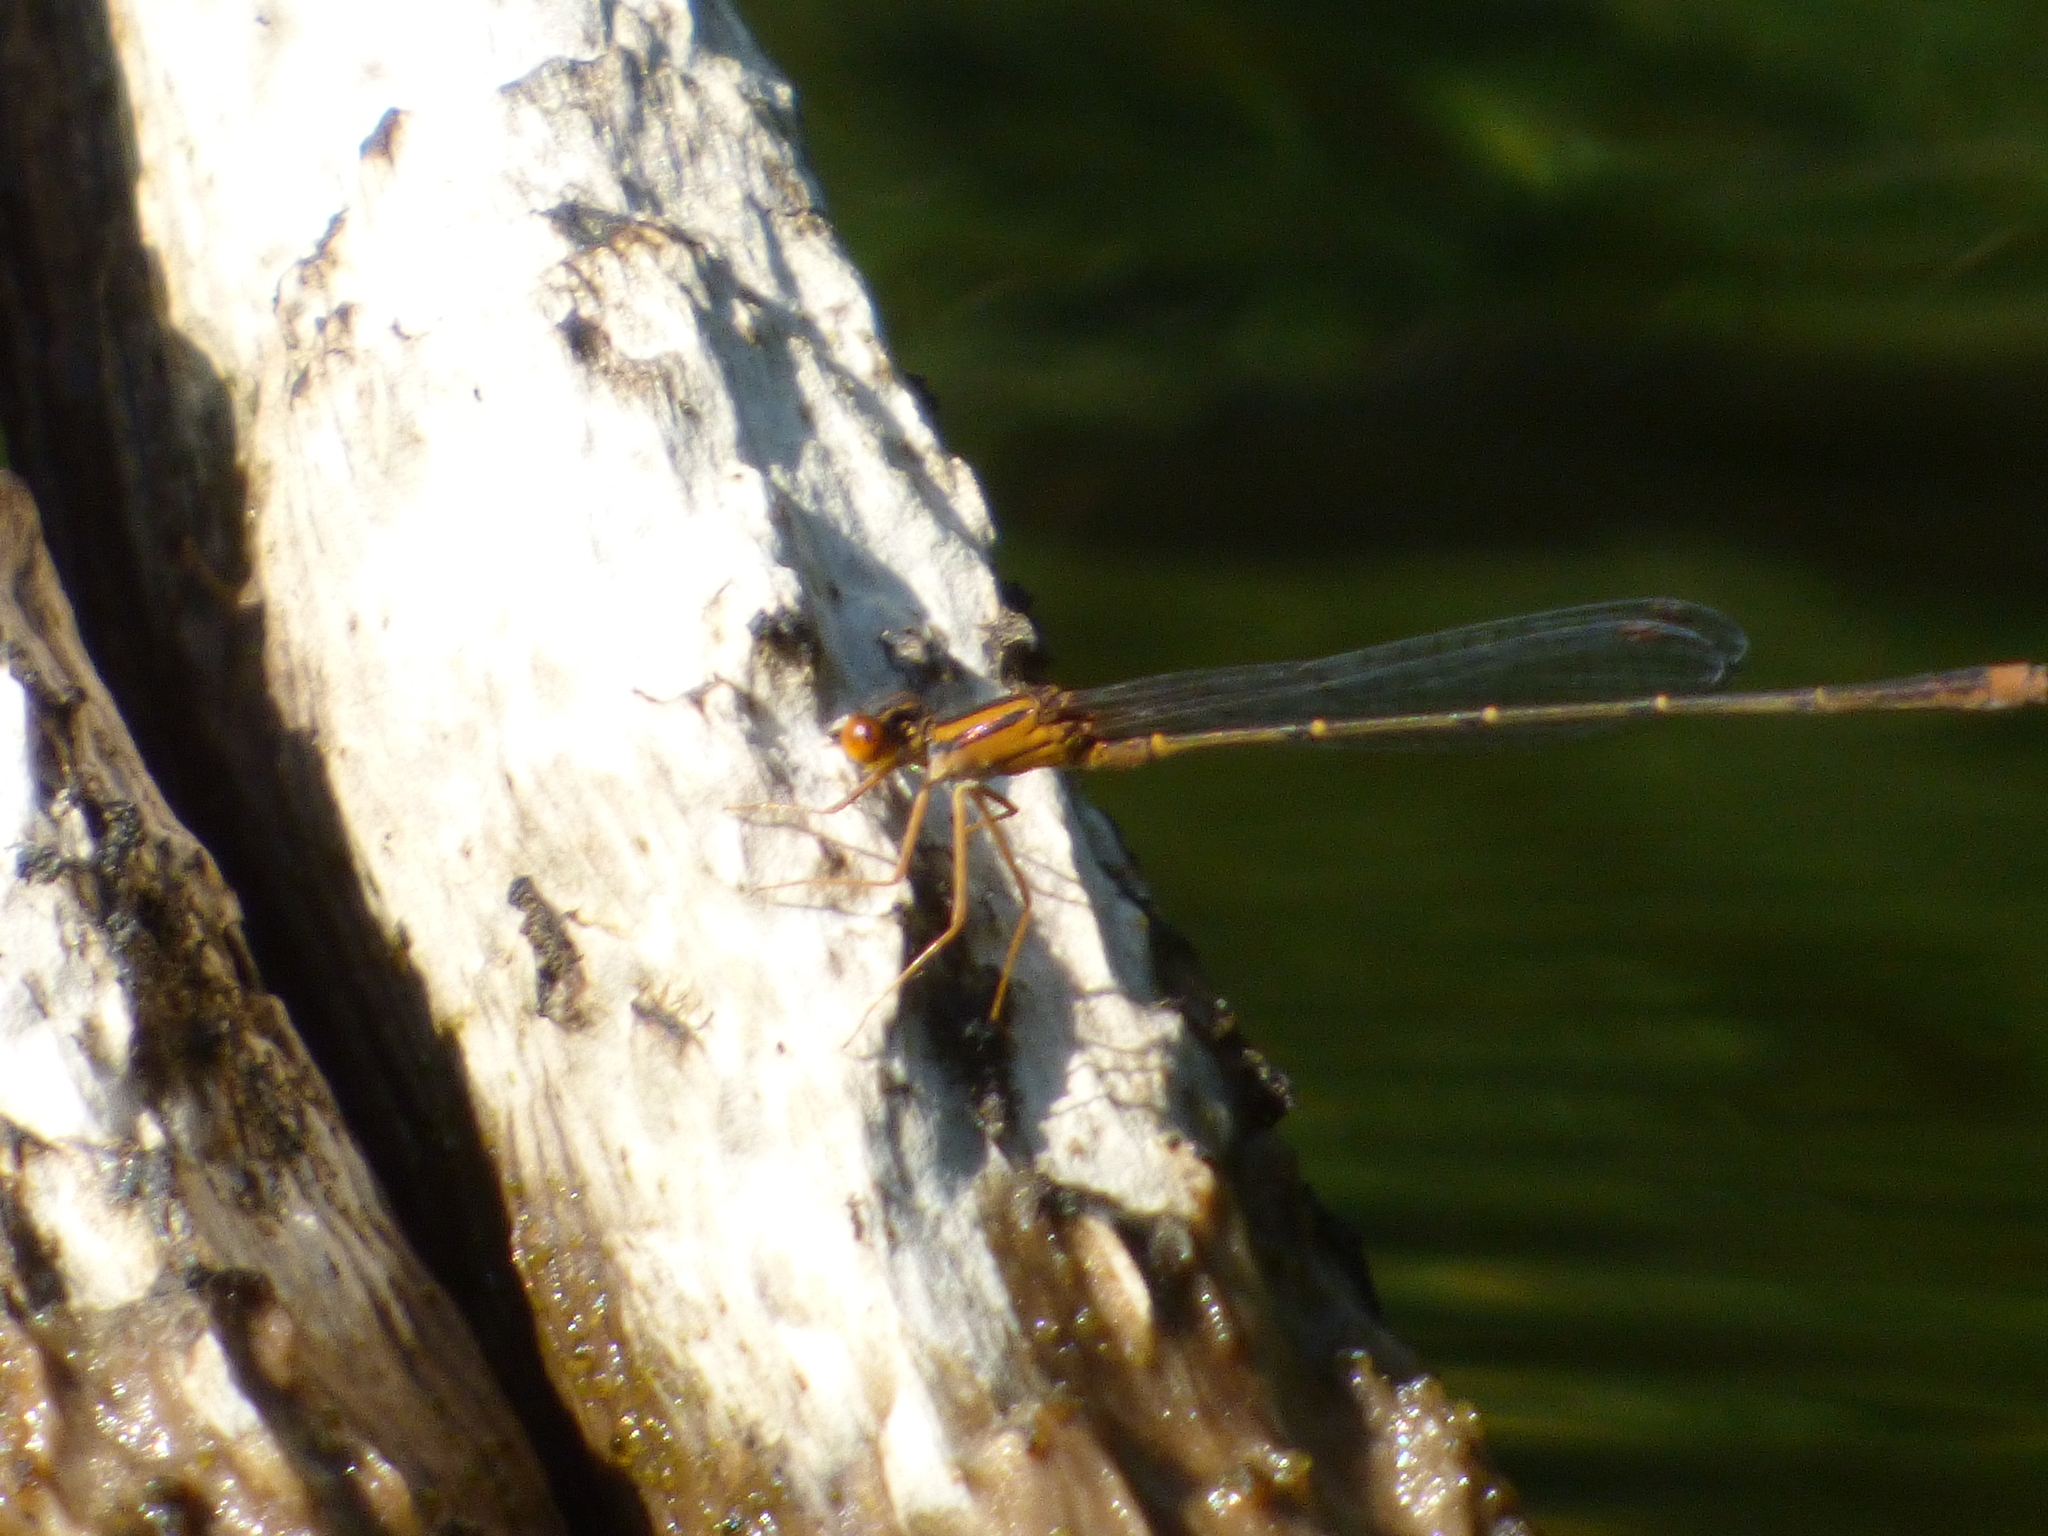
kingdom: Animalia
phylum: Arthropoda
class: Insecta
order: Odonata
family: Coenagrionidae
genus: Enallagma
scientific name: Enallagma signatum
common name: Orange bluet
